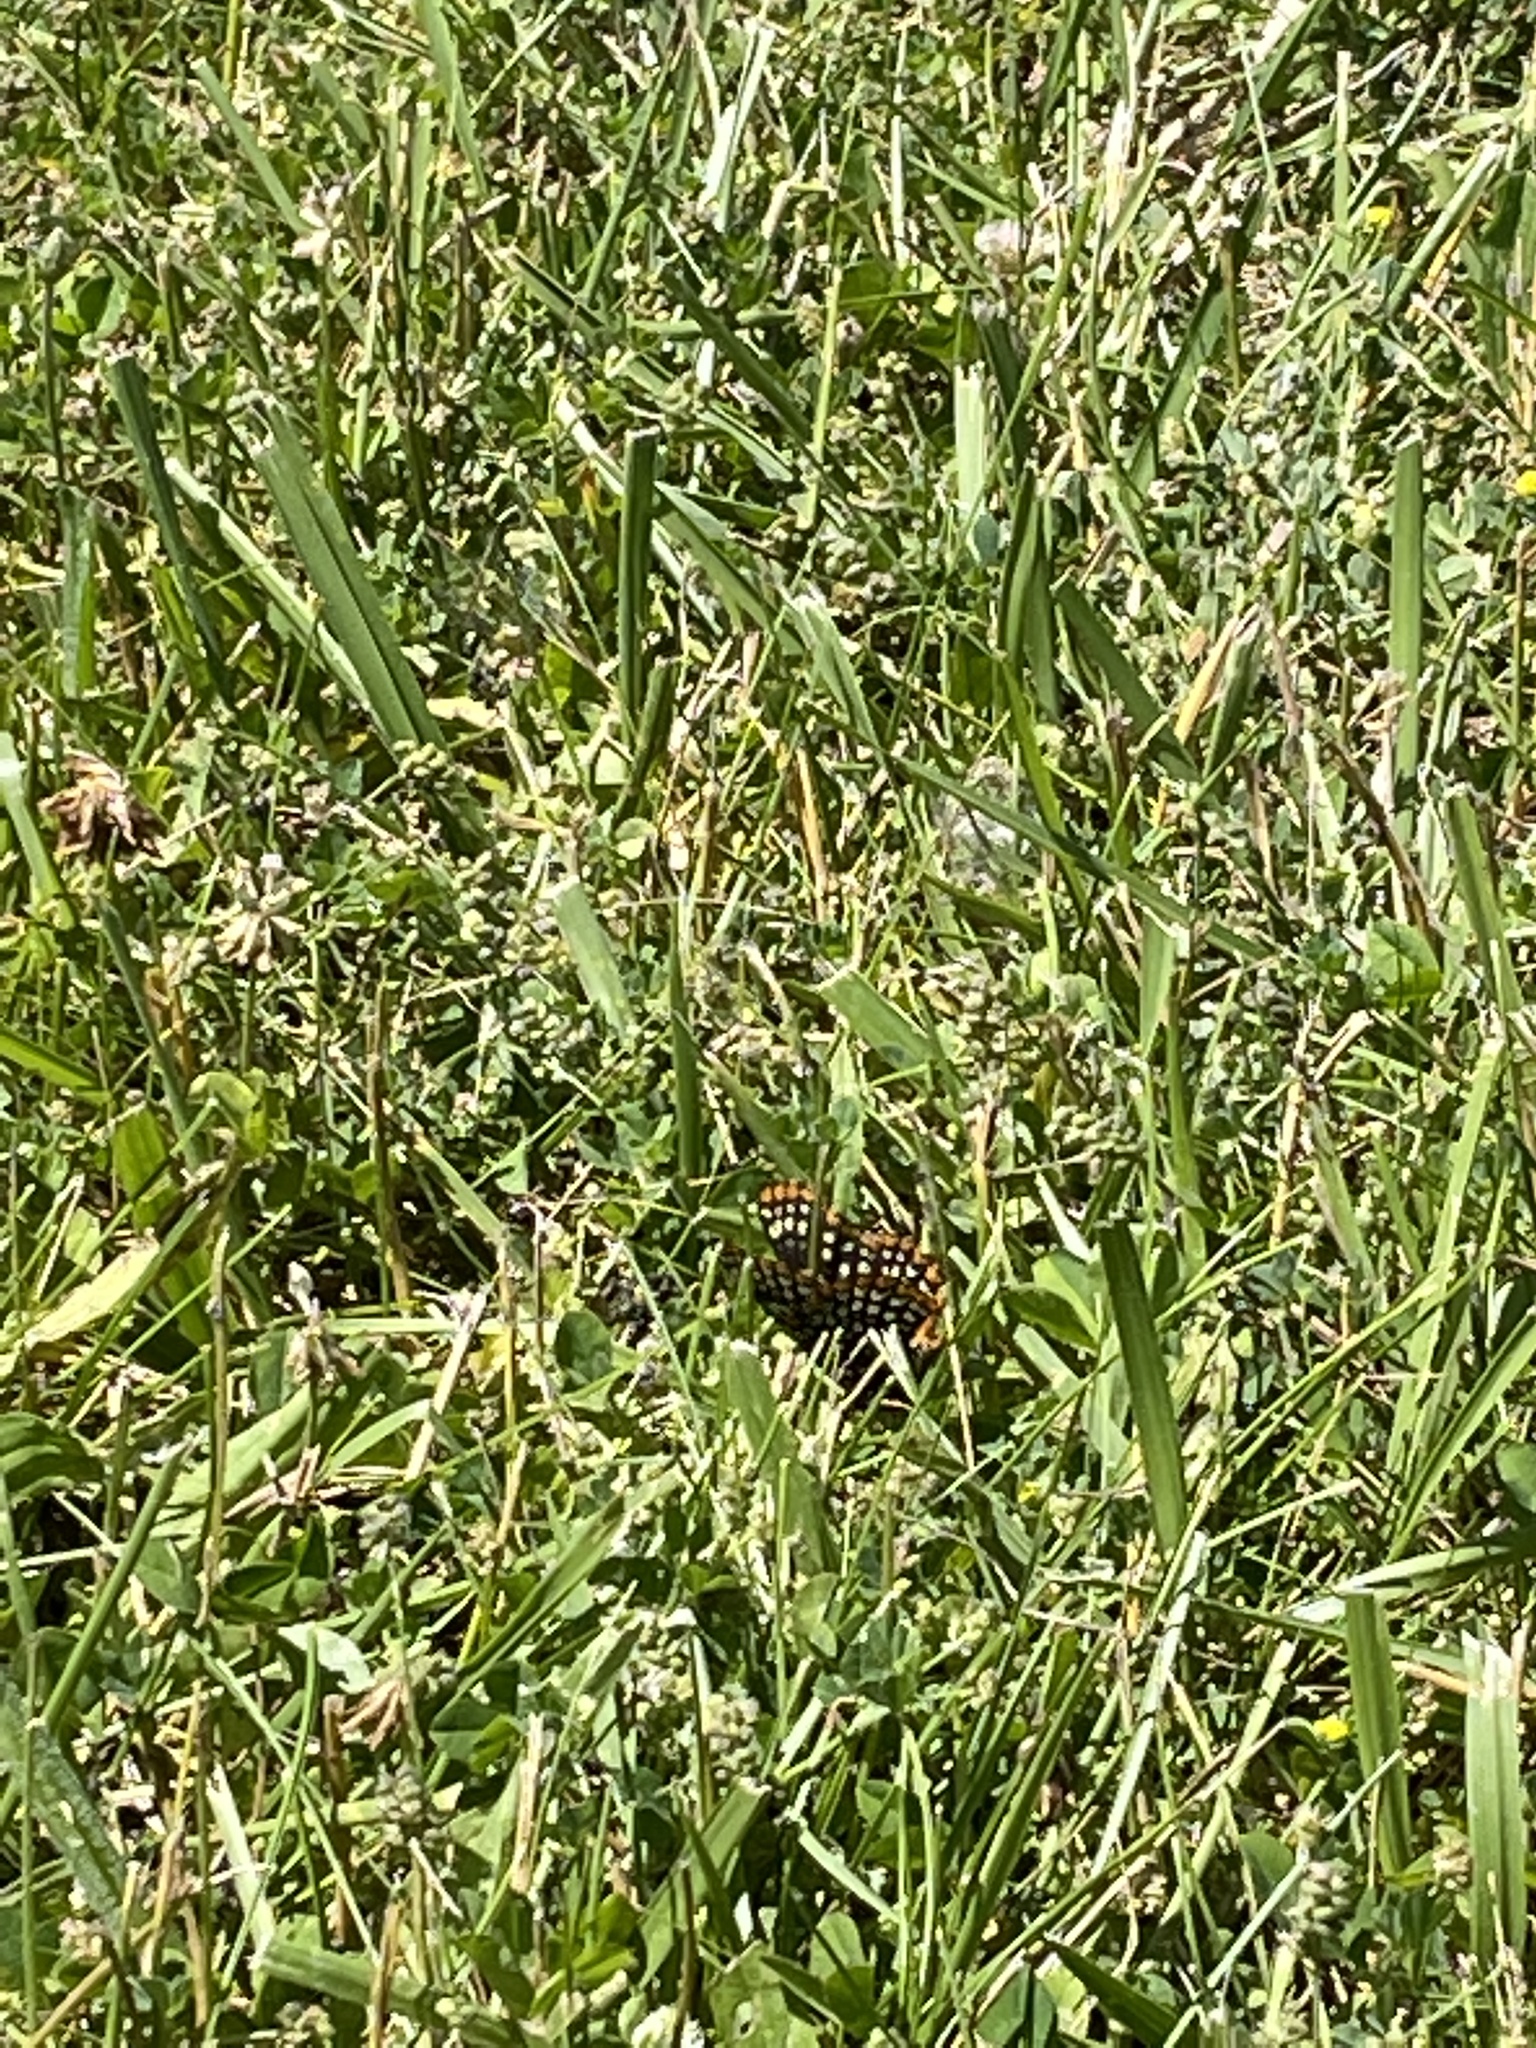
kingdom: Animalia
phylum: Arthropoda
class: Insecta
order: Lepidoptera
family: Nymphalidae
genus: Euphydryas
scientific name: Euphydryas phaeton
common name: Baltimore checkerspot
